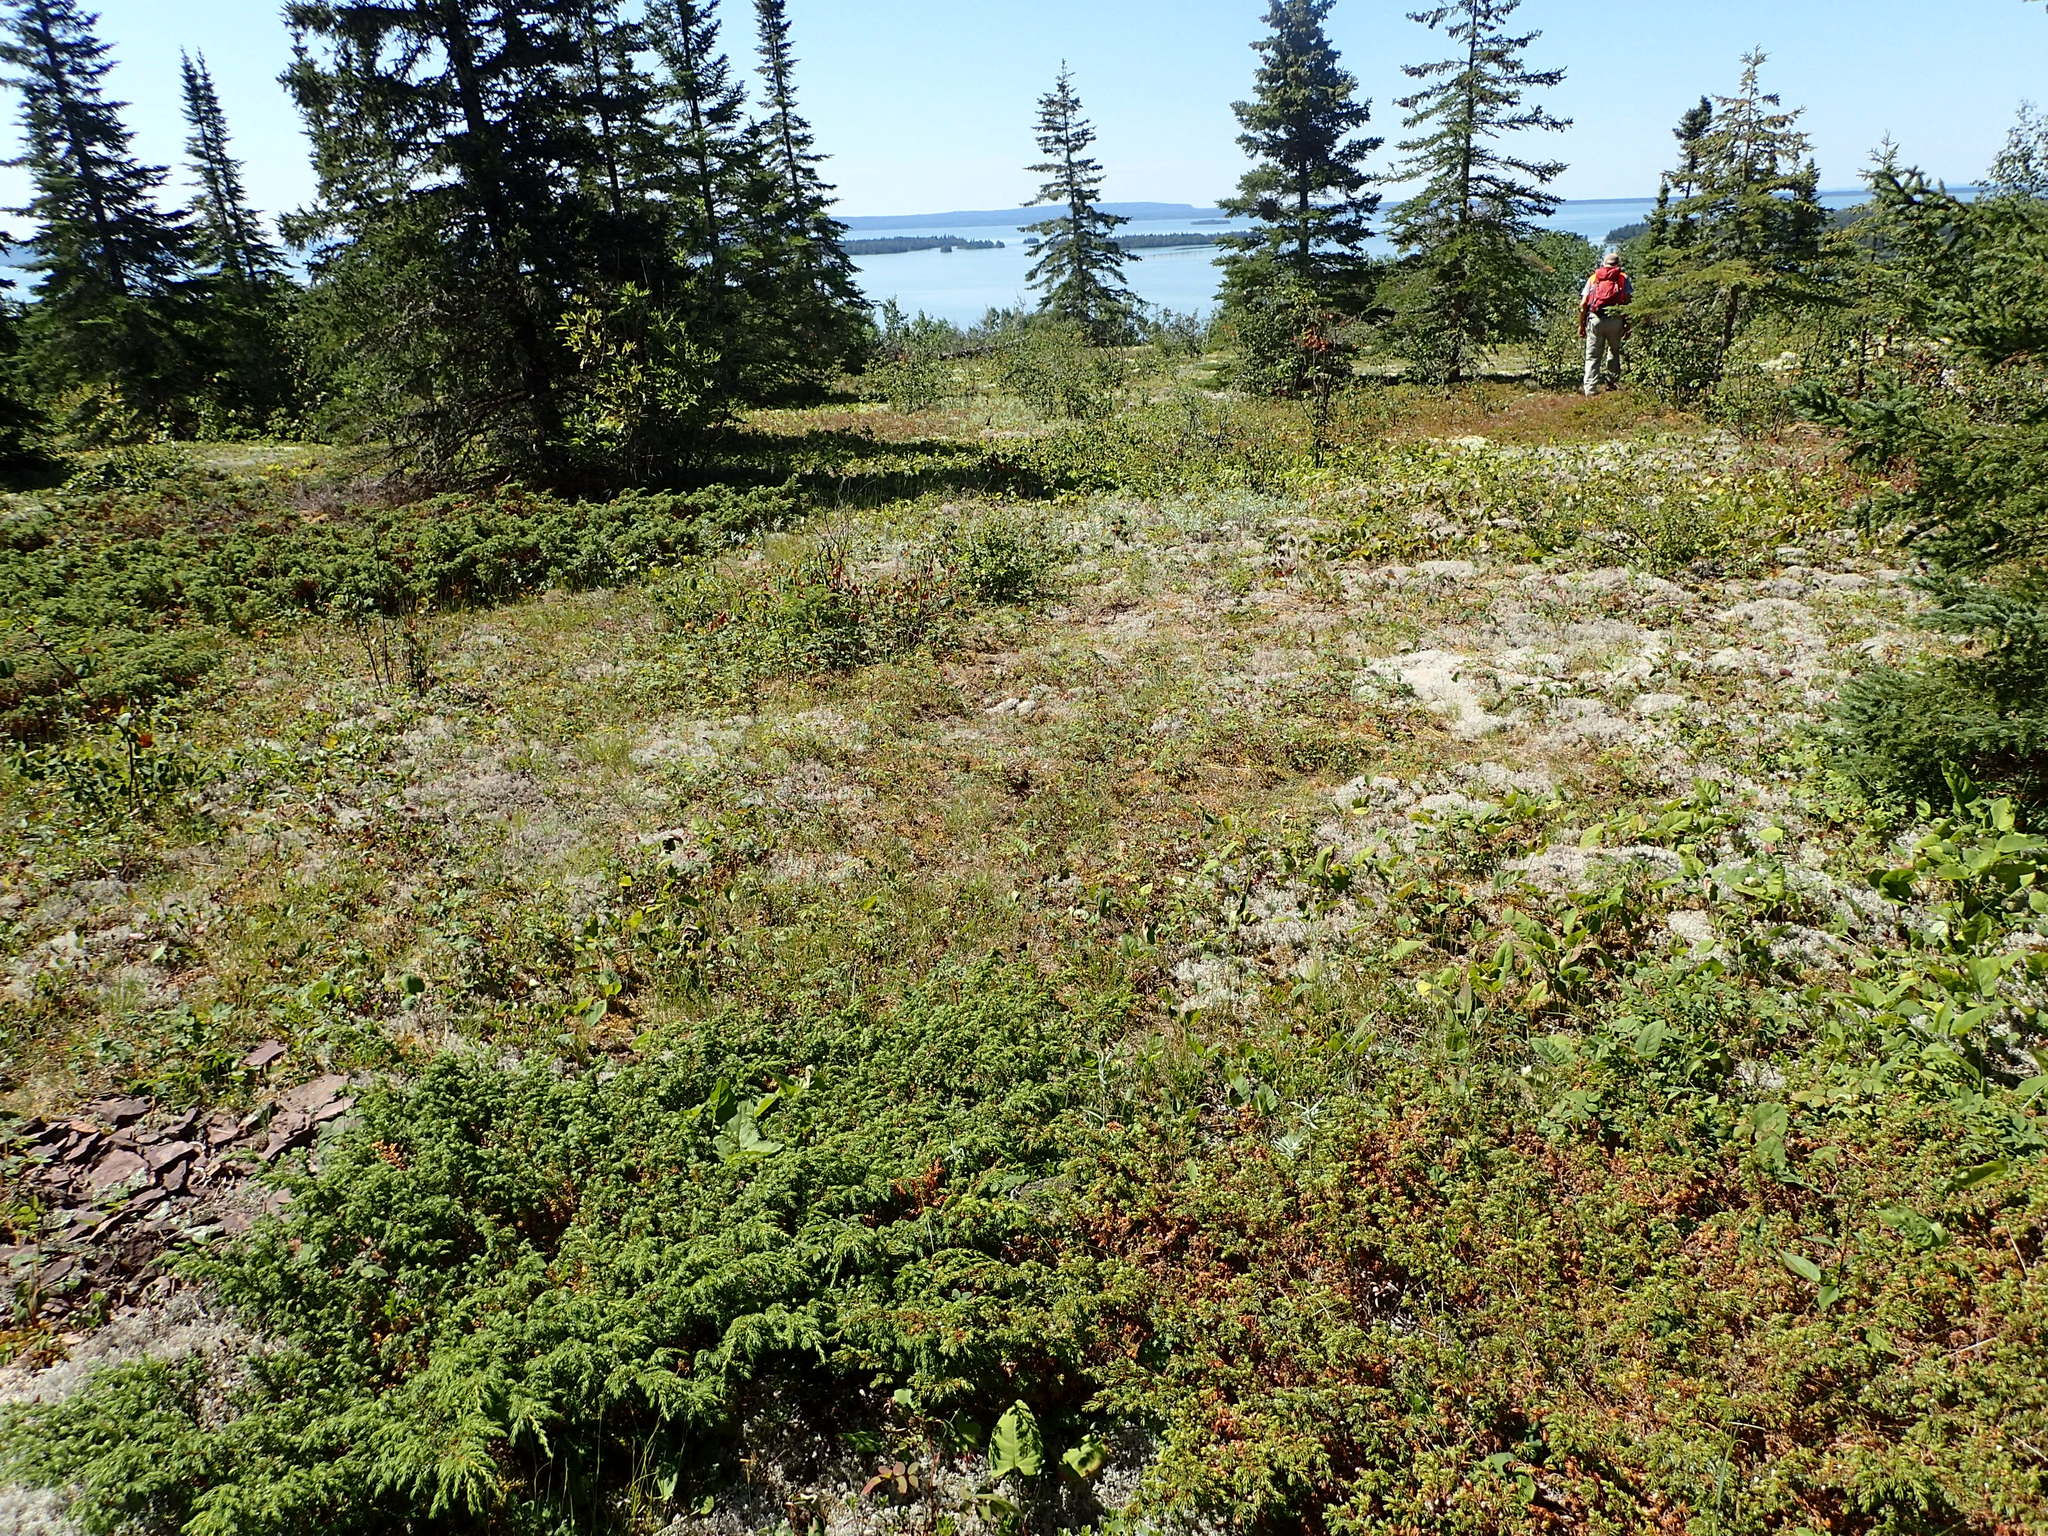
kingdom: Plantae
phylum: Tracheophyta
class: Pinopsida
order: Pinales
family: Cupressaceae
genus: Juniperus
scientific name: Juniperus communis
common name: Common juniper
